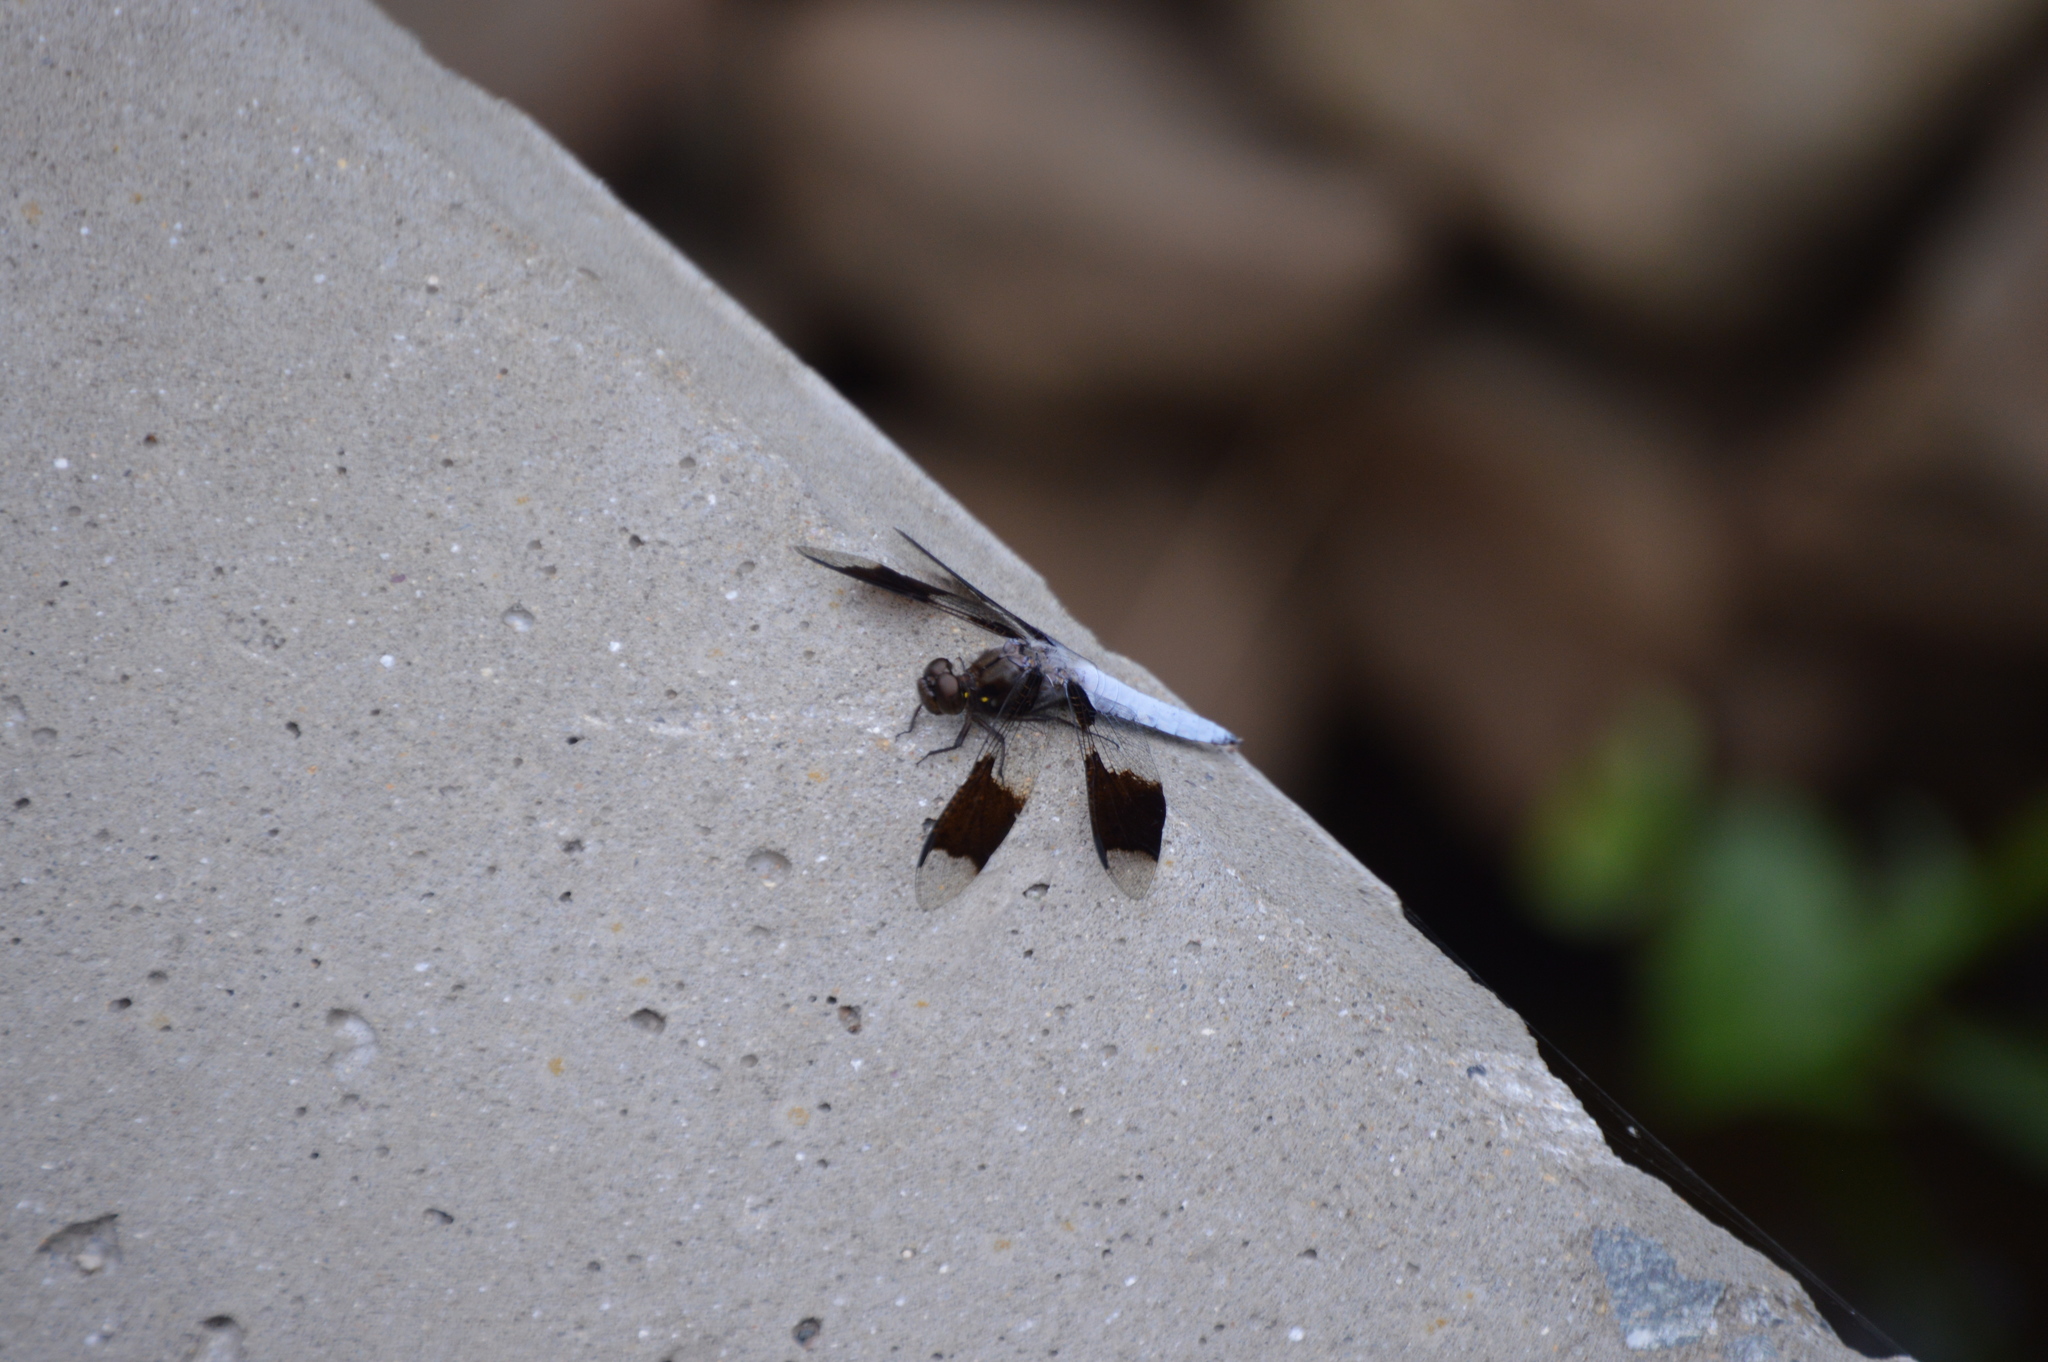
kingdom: Animalia
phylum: Arthropoda
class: Insecta
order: Odonata
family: Libellulidae
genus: Plathemis
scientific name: Plathemis lydia
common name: Common whitetail
